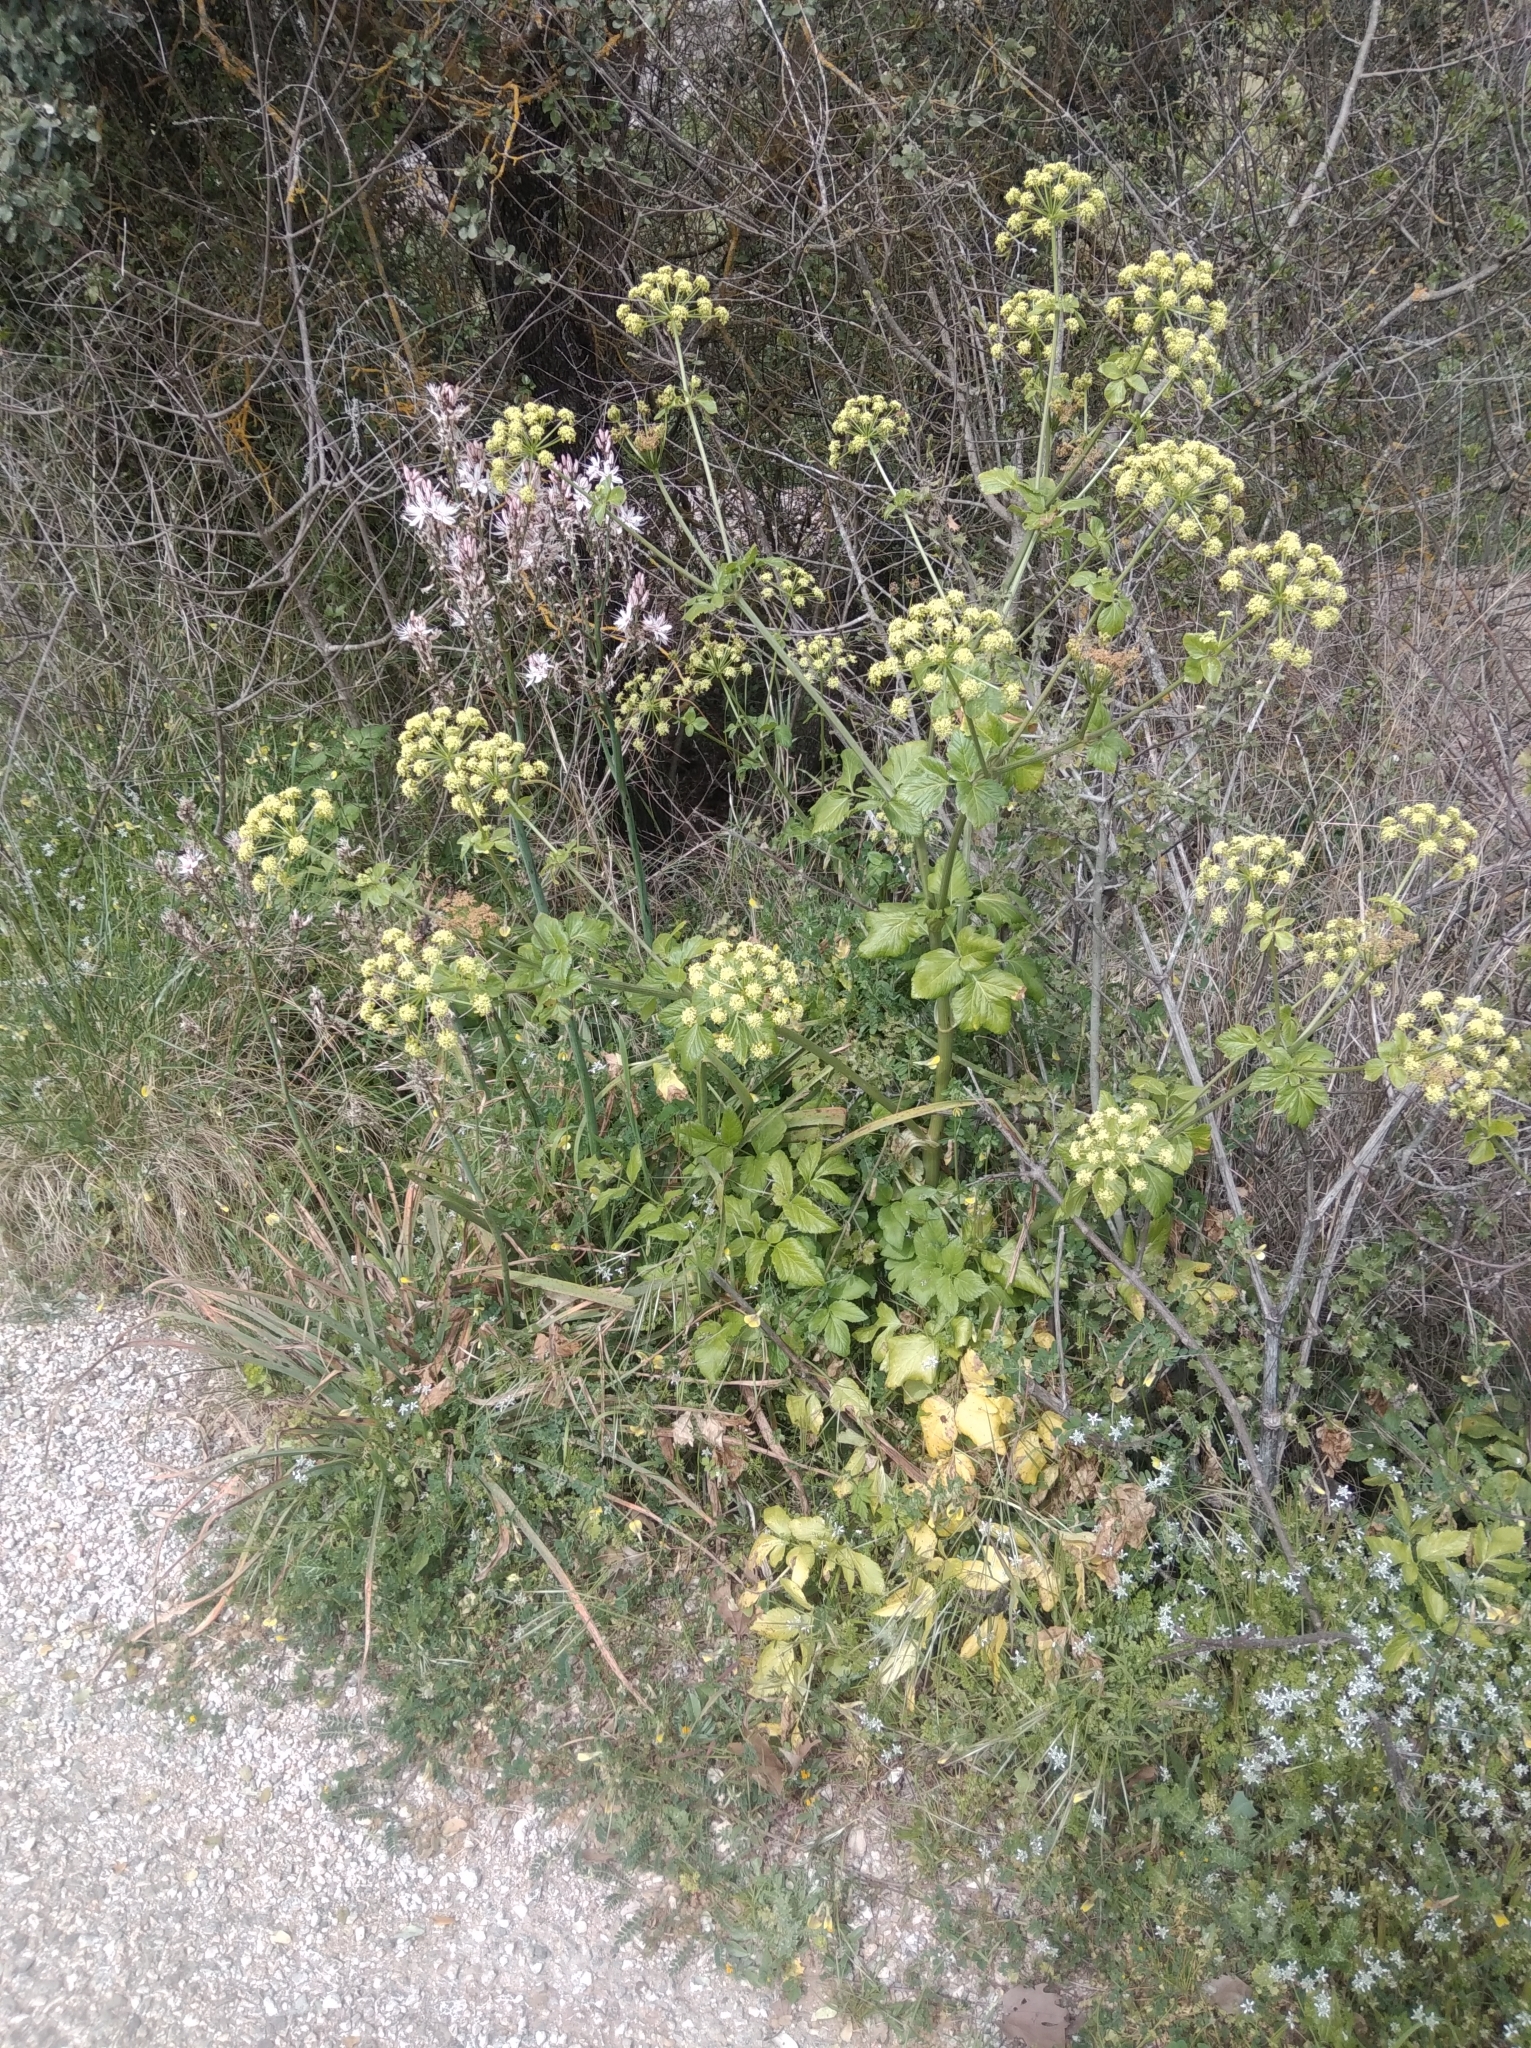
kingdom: Plantae
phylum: Tracheophyta
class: Magnoliopsida
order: Apiales
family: Apiaceae
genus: Smyrnium
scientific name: Smyrnium olusatrum
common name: Alexanders
